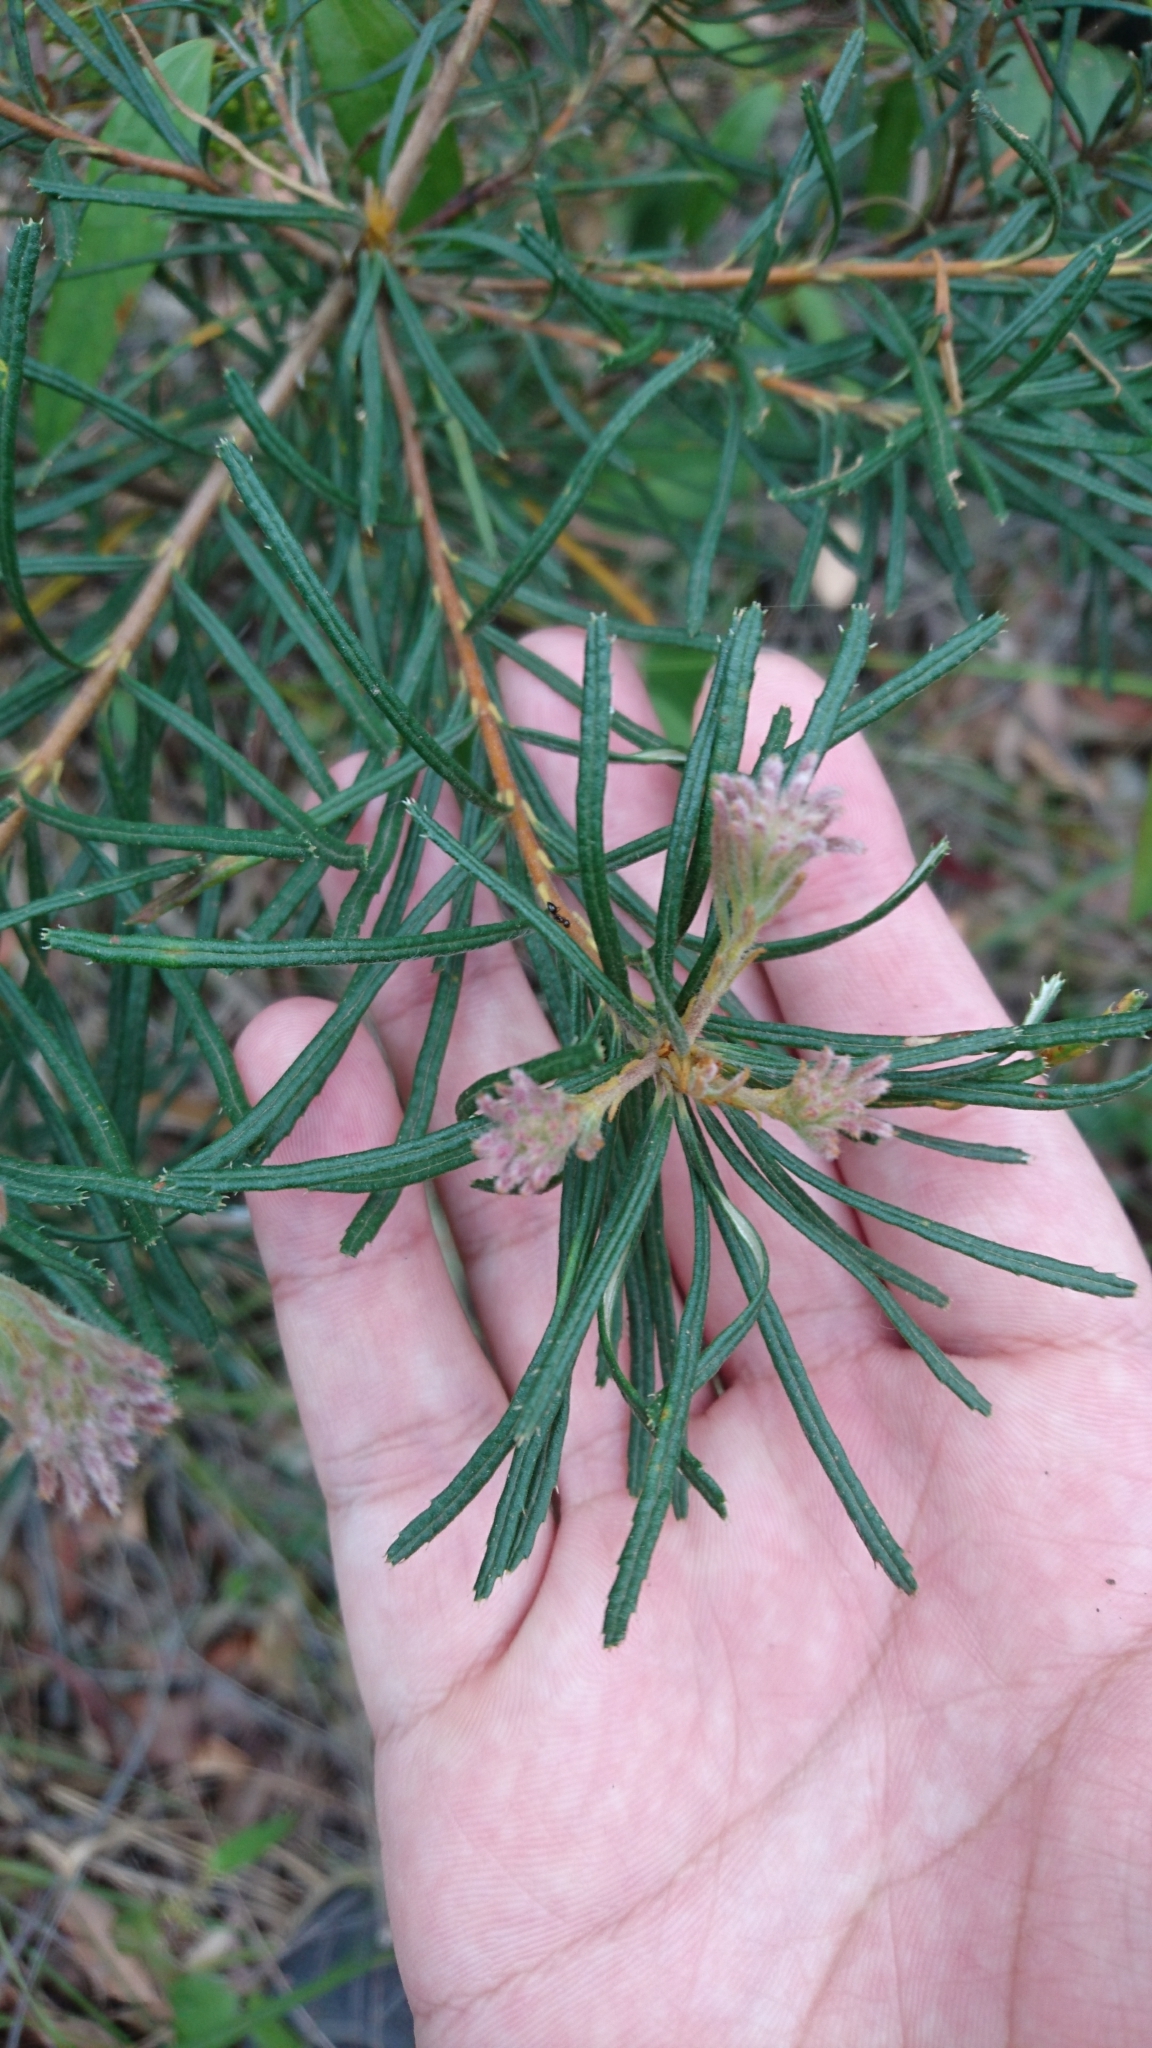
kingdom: Plantae
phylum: Tracheophyta
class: Magnoliopsida
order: Proteales
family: Proteaceae
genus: Banksia
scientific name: Banksia spinulosa
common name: Hairpin banksia
